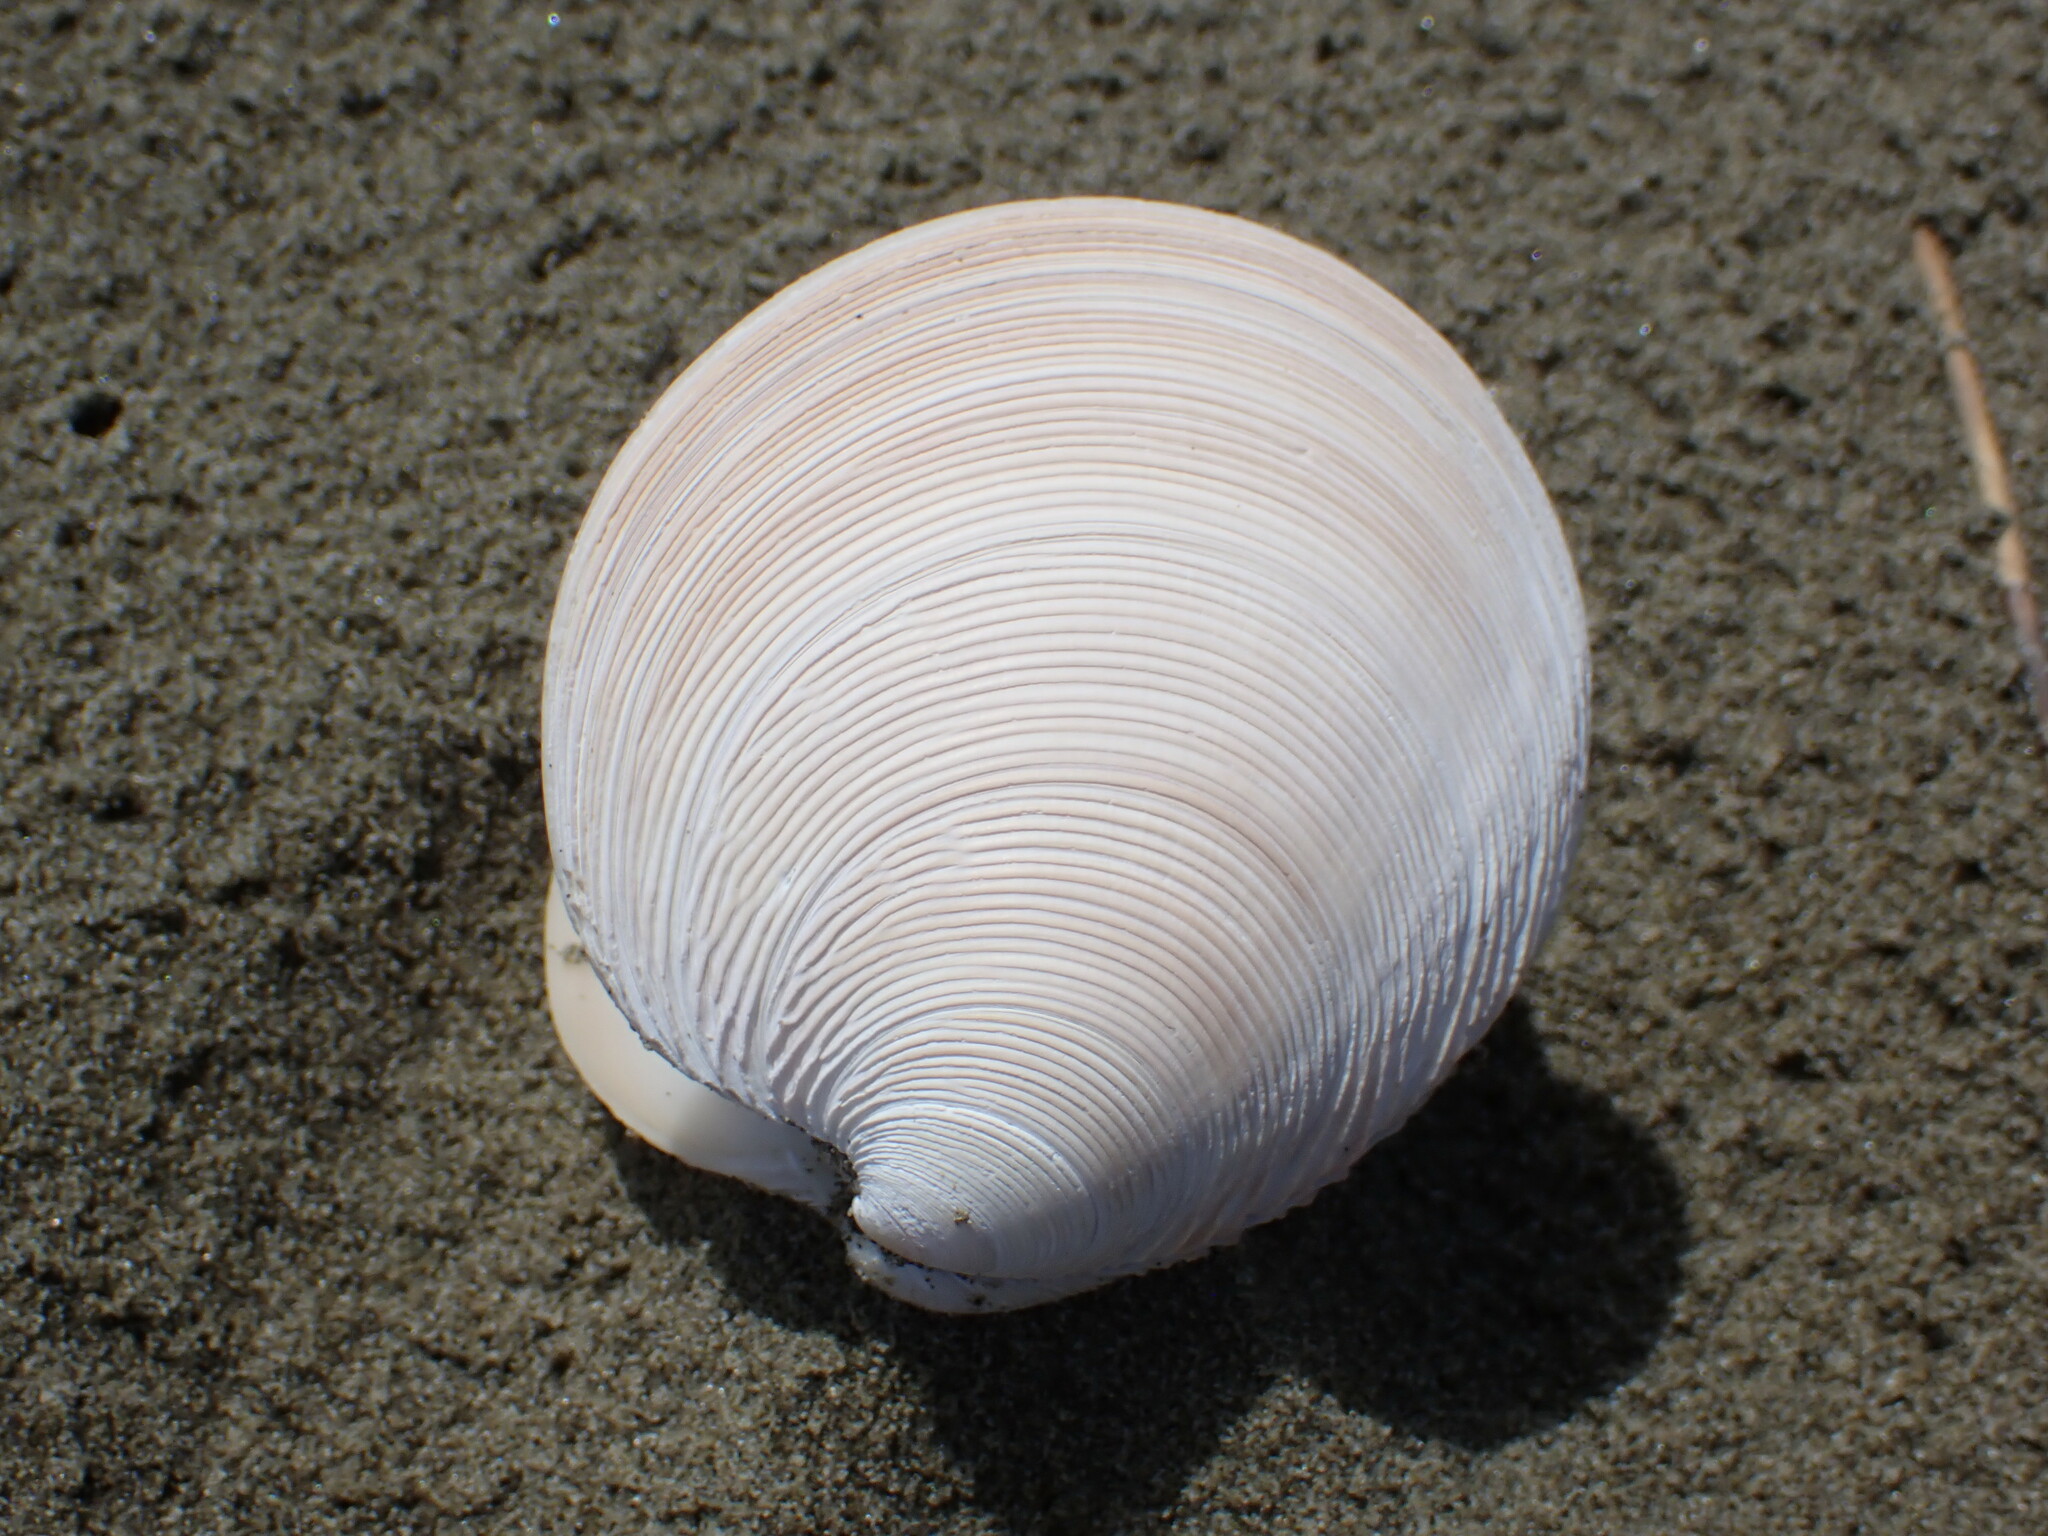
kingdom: Animalia
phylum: Mollusca
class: Bivalvia
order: Venerida
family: Veneridae
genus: Dosinia
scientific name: Dosinia anus
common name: Old-woman dosinia
